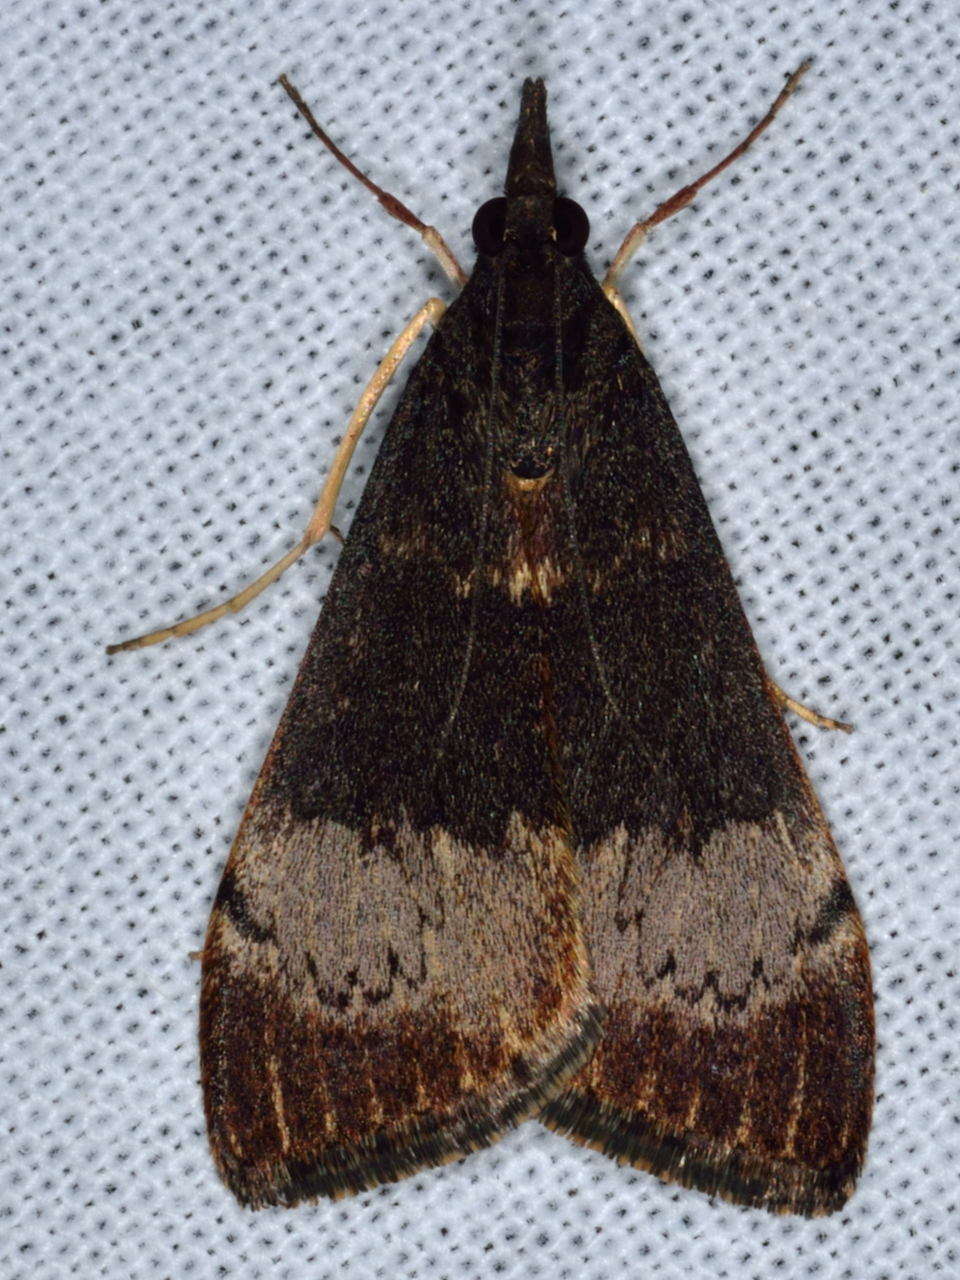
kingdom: Animalia
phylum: Arthropoda
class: Insecta
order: Lepidoptera
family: Crambidae
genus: Uresiphita
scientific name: Uresiphita ornithopteralis
